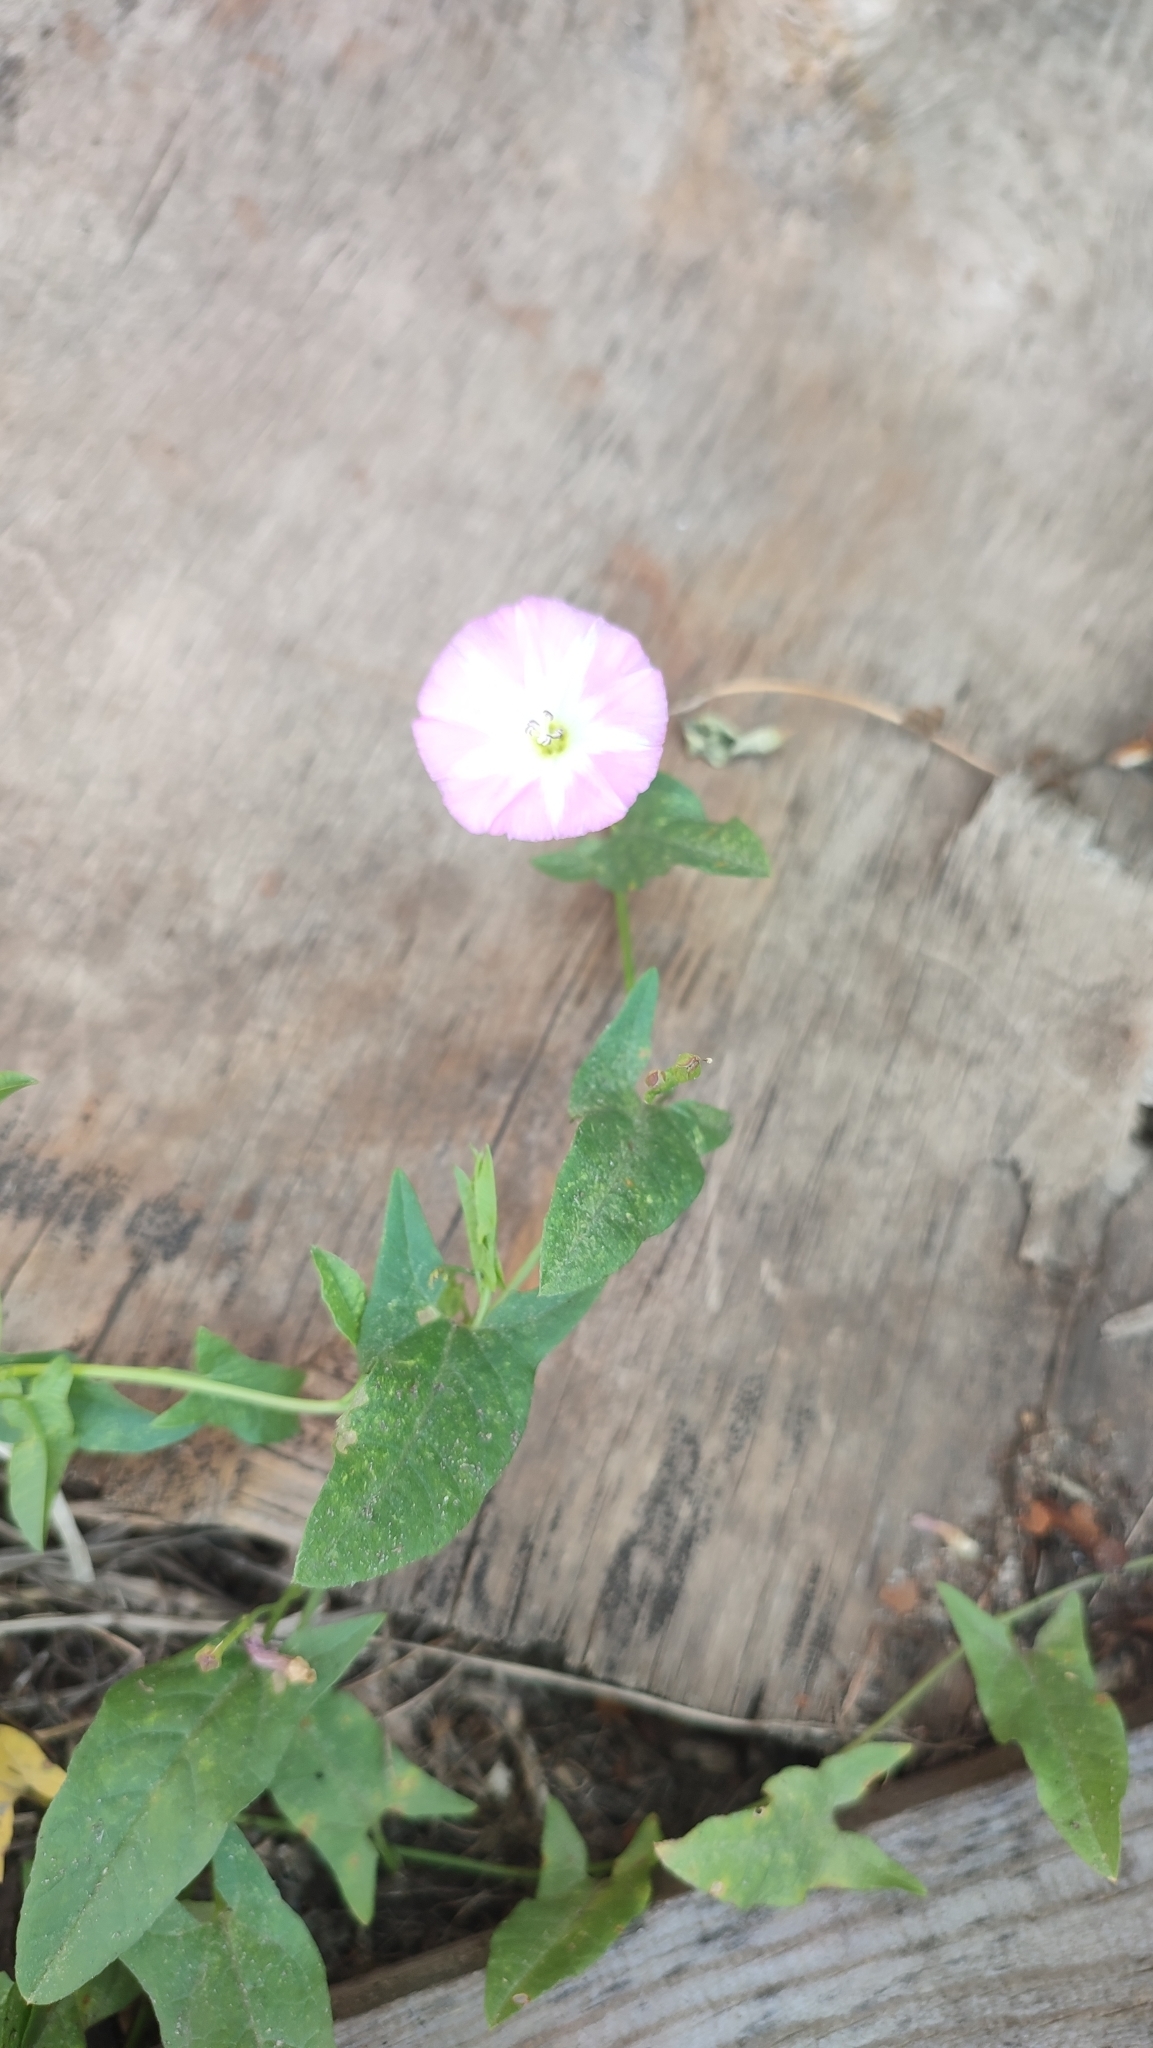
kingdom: Plantae
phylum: Tracheophyta
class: Magnoliopsida
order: Solanales
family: Convolvulaceae
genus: Convolvulus
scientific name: Convolvulus arvensis
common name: Field bindweed
